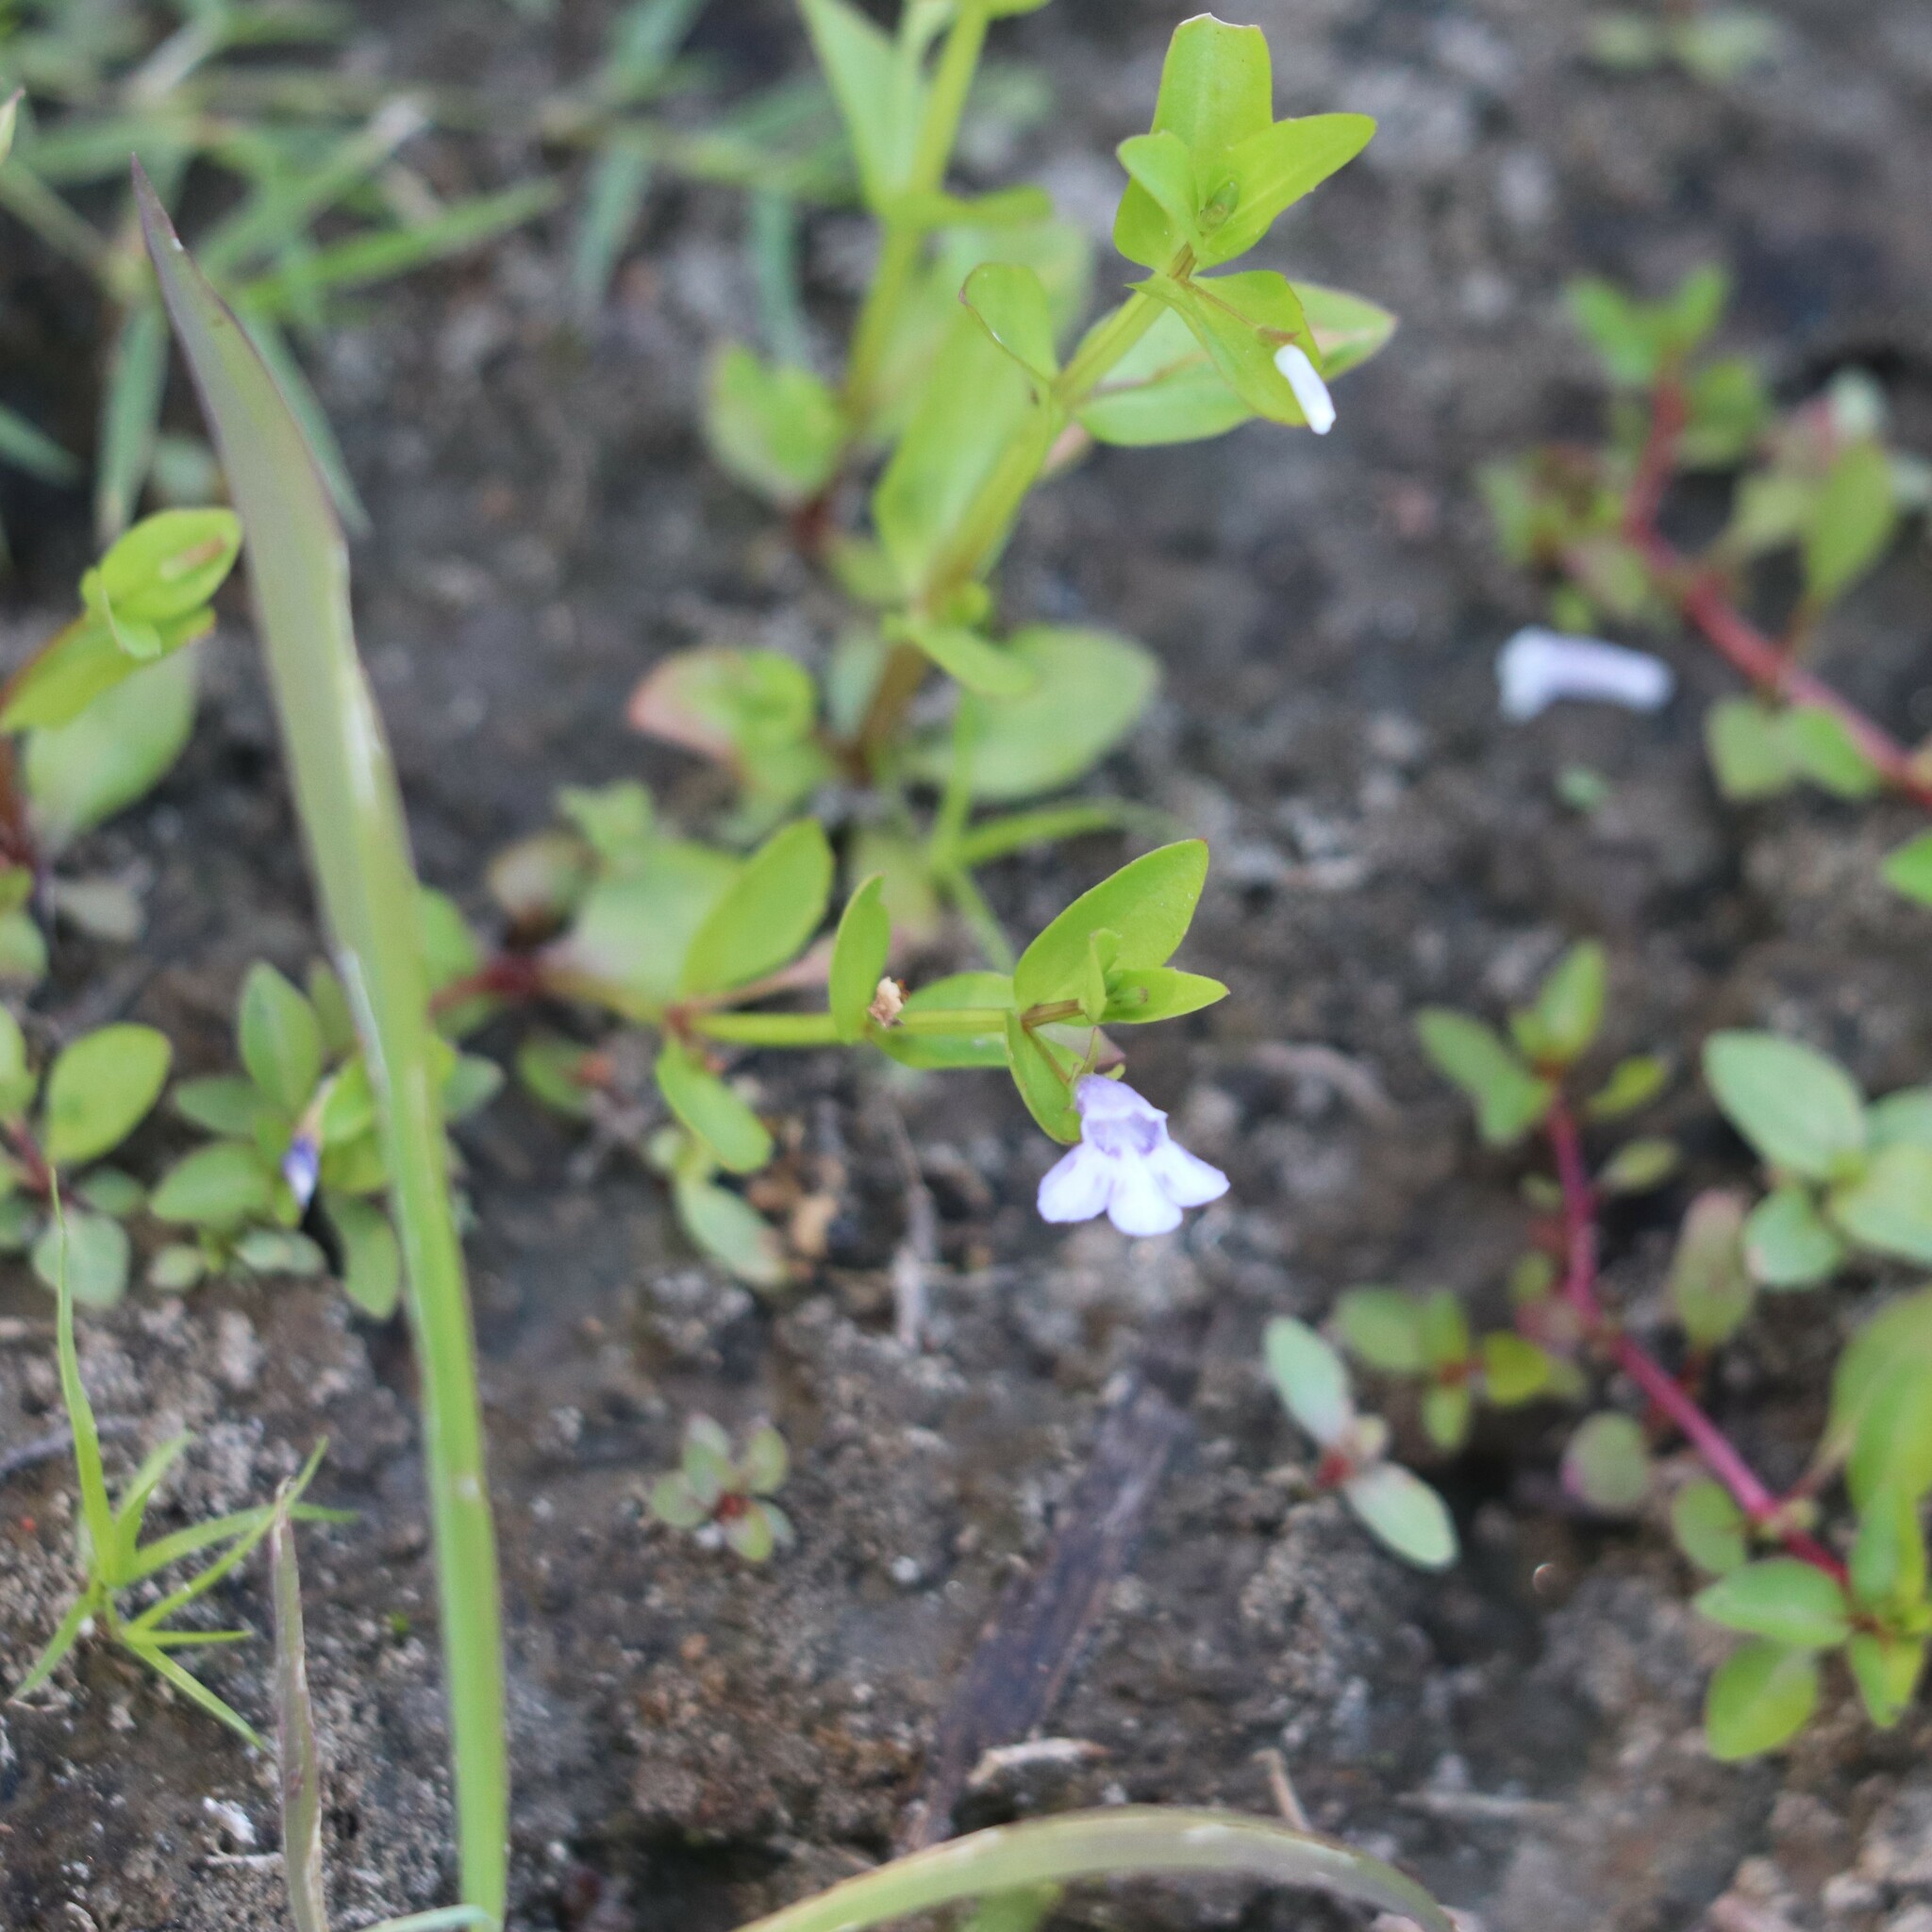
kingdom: Plantae
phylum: Tracheophyta
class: Magnoliopsida
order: Lamiales
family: Linderniaceae
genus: Lindernia
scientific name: Lindernia dubia
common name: Annual false pimpernel
